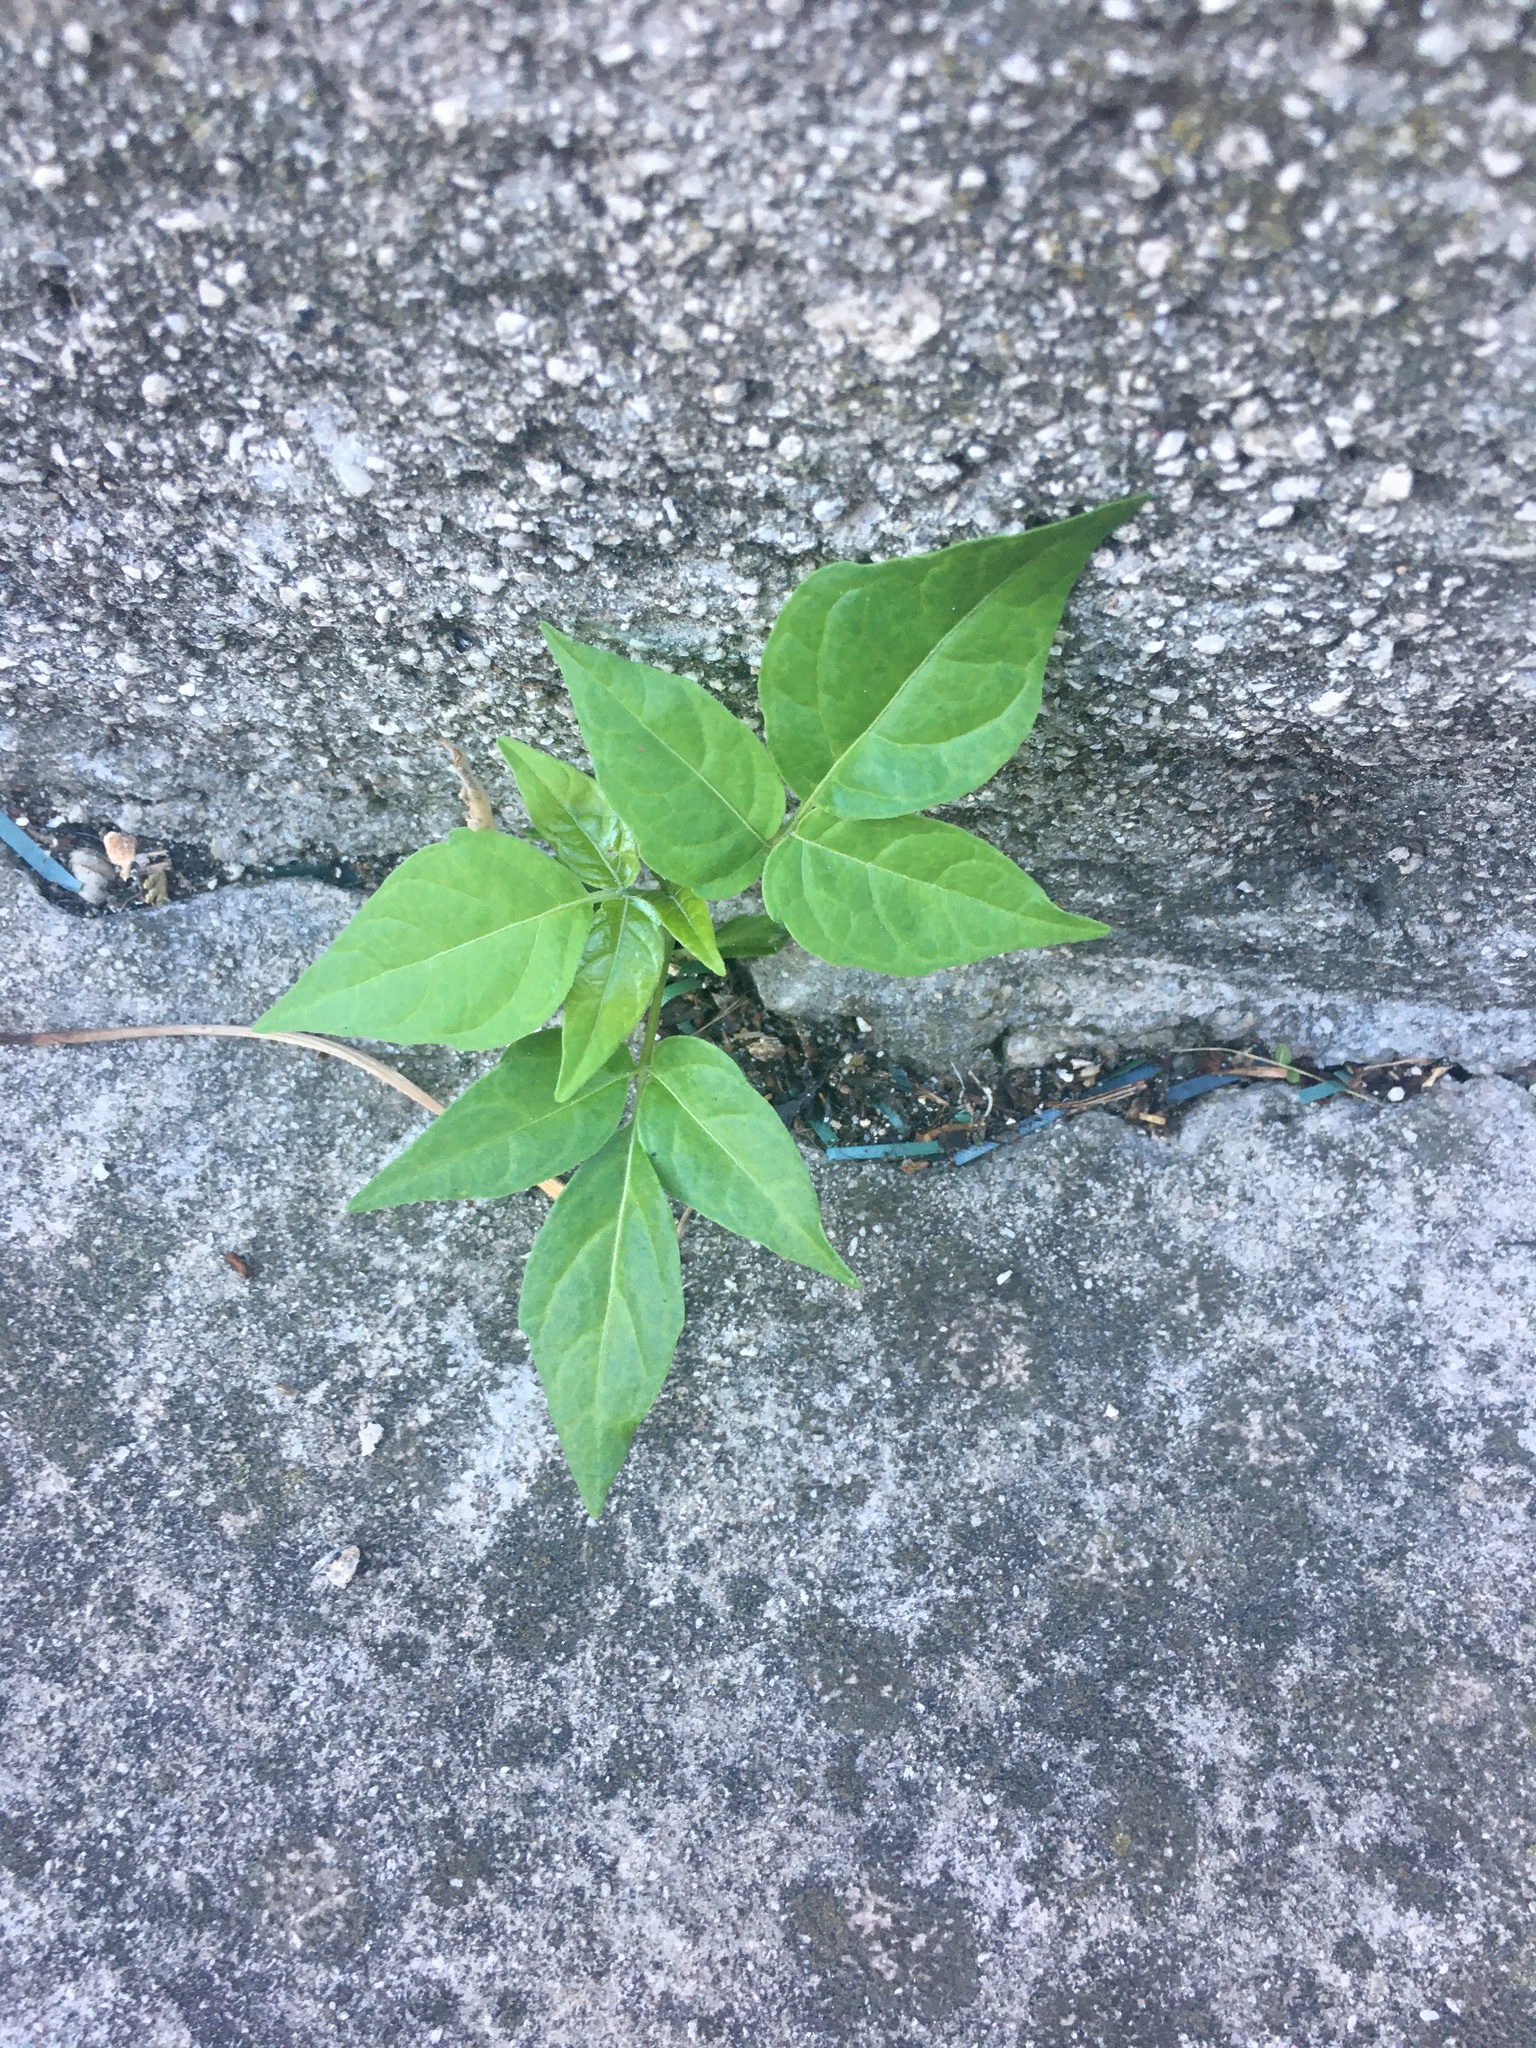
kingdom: Plantae
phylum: Tracheophyta
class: Magnoliopsida
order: Sapindales
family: Simaroubaceae
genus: Ailanthus
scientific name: Ailanthus altissima
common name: Tree-of-heaven
